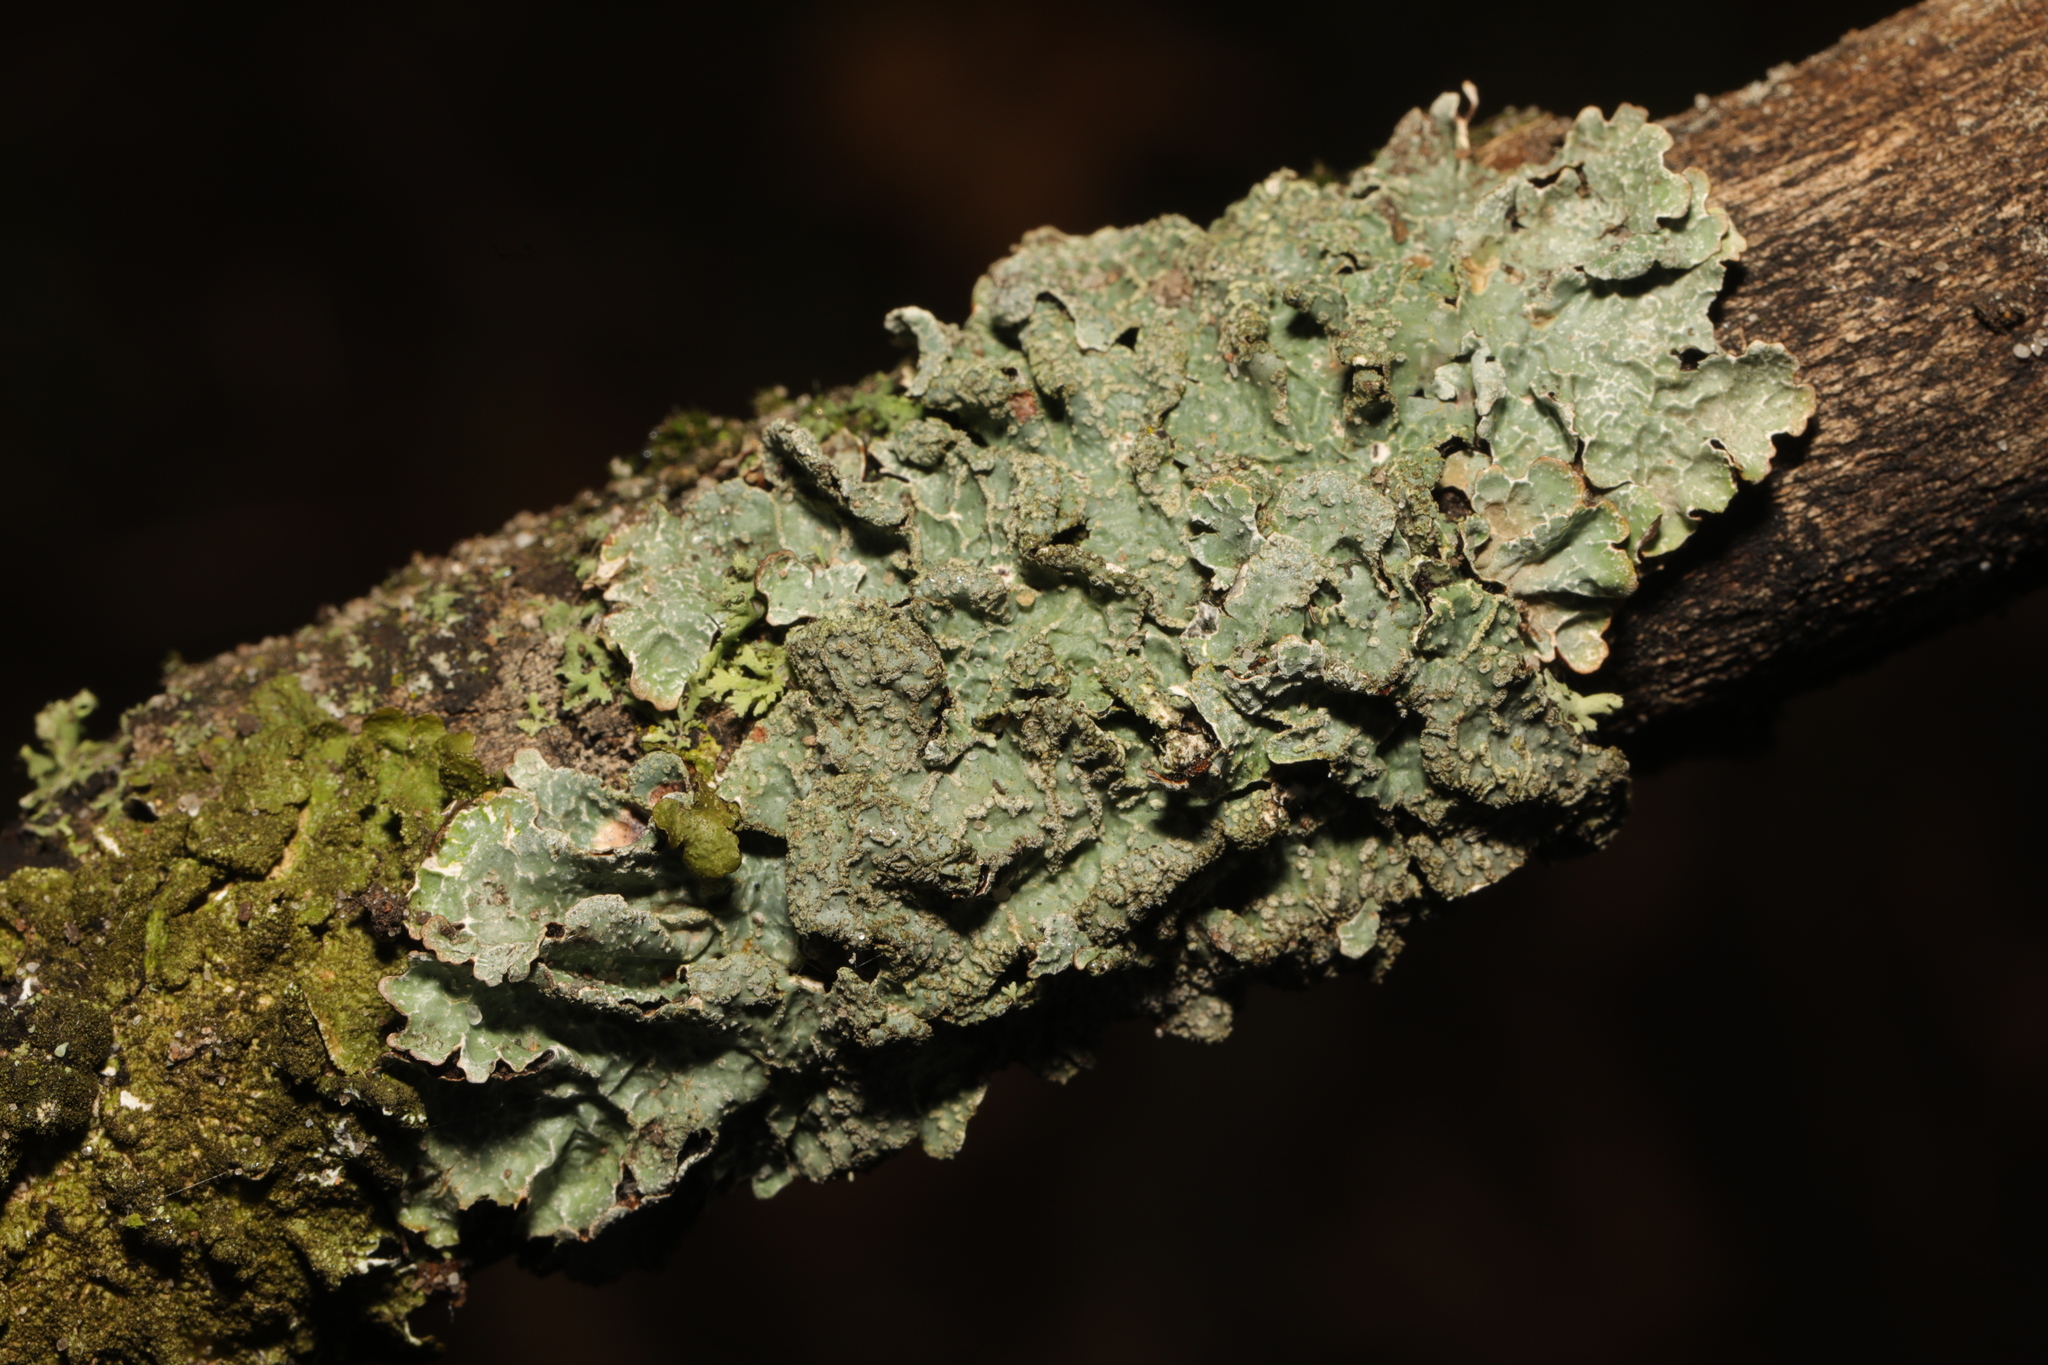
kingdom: Fungi
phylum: Ascomycota
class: Lecanoromycetes
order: Lecanorales
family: Parmeliaceae
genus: Parmelia
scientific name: Parmelia sulcata
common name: Netted shield lichen
